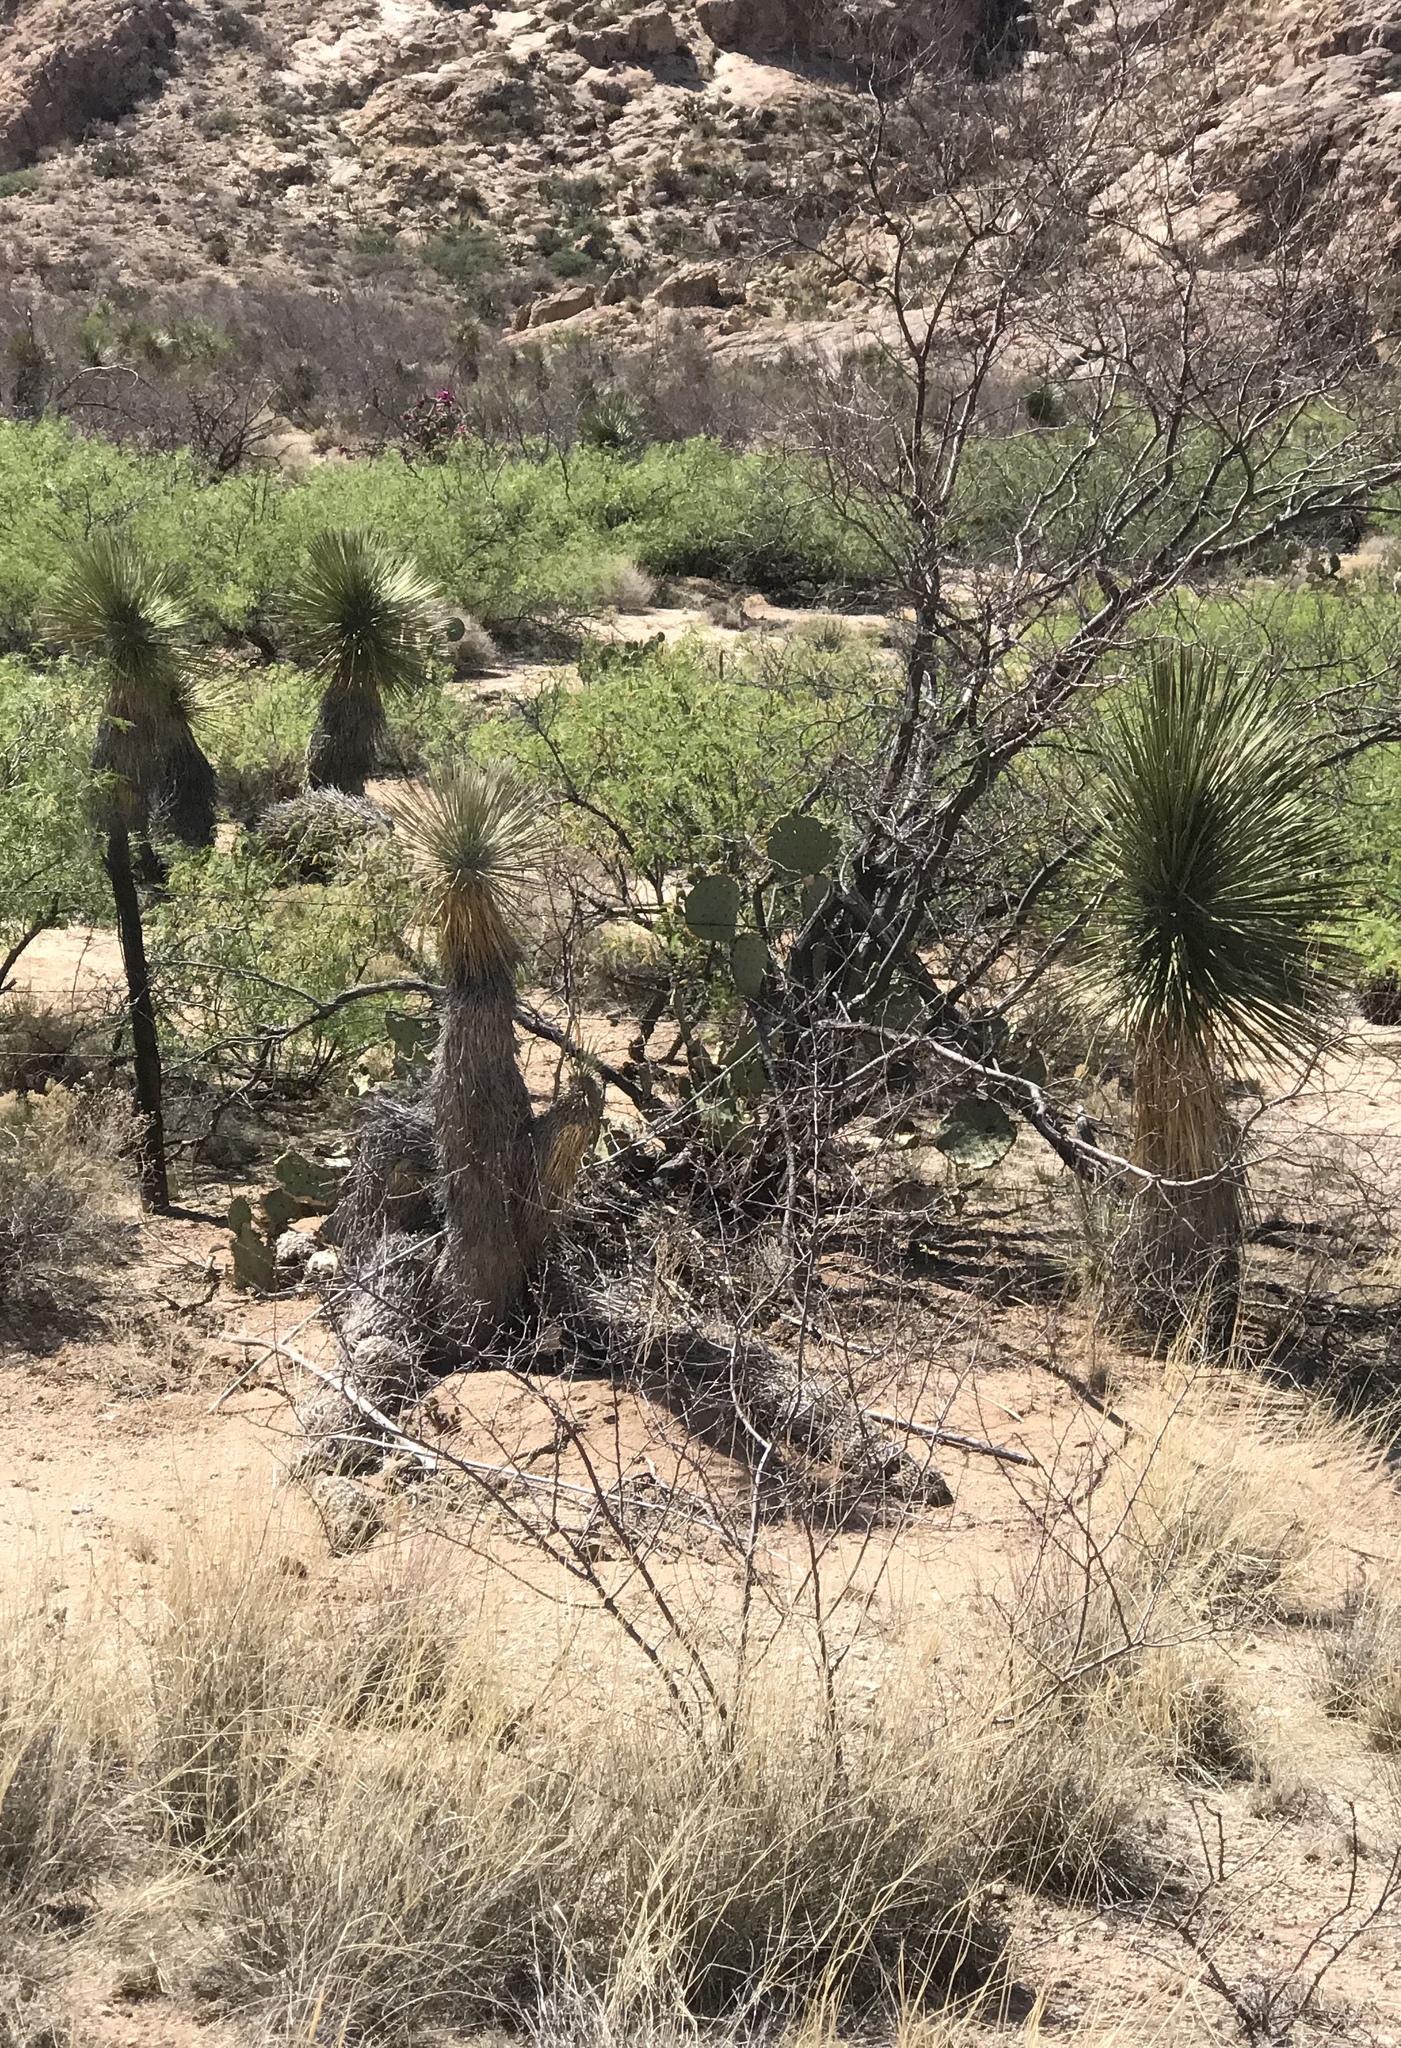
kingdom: Plantae
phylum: Tracheophyta
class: Liliopsida
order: Asparagales
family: Asparagaceae
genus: Yucca
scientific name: Yucca elata
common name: Palmella
